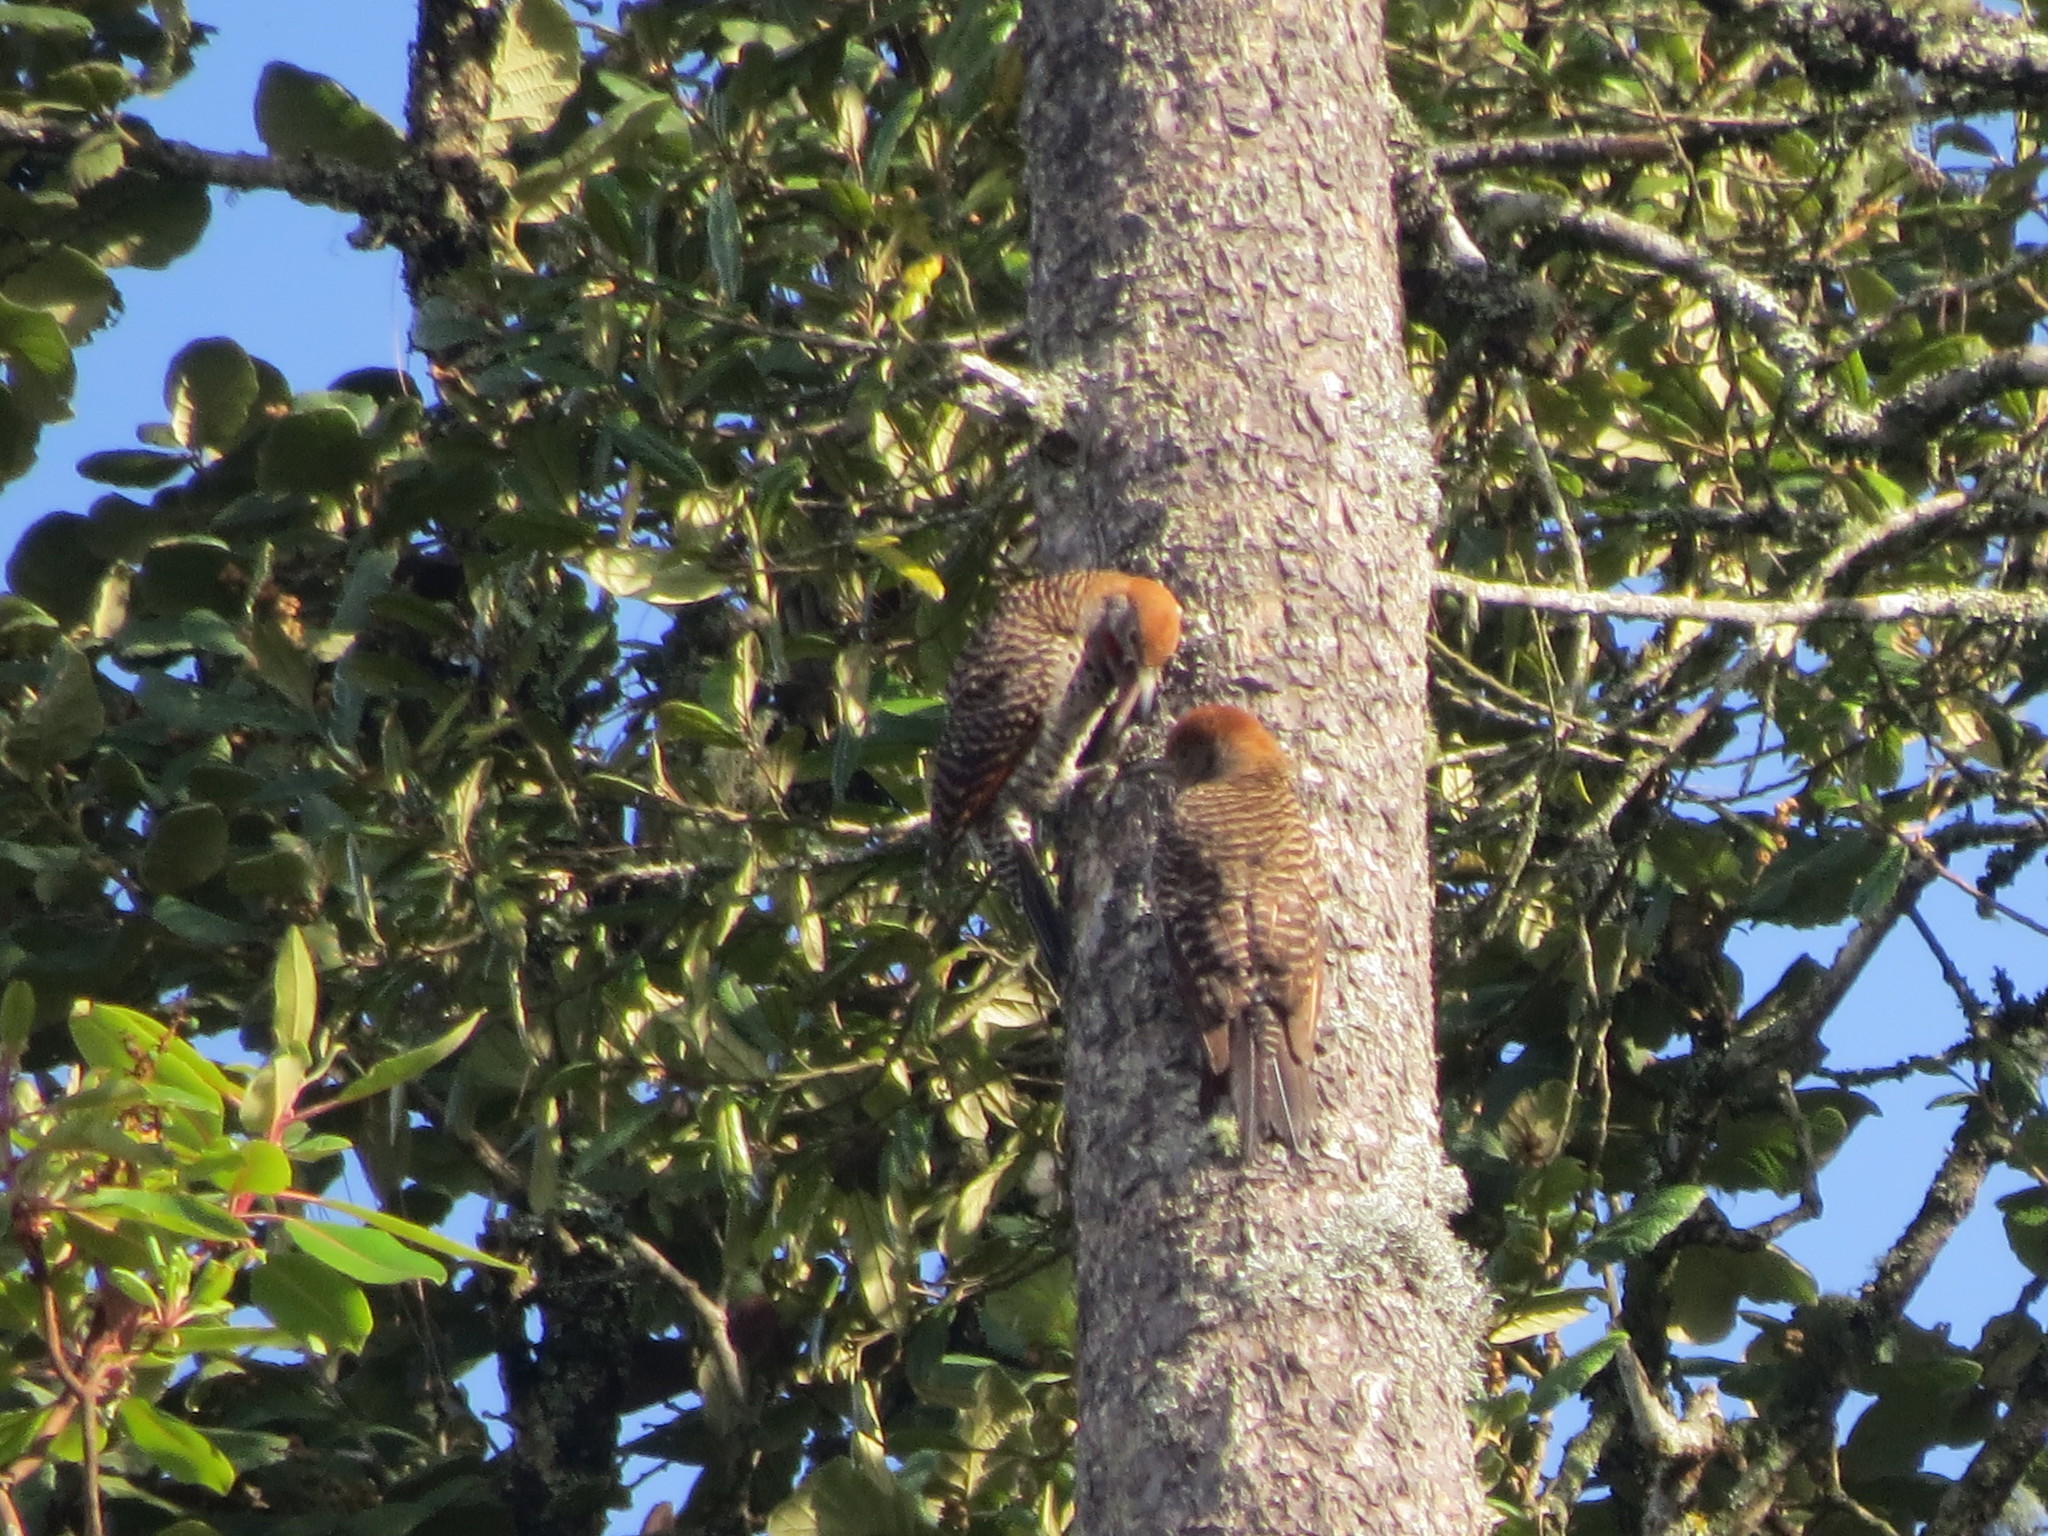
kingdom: Animalia
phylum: Chordata
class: Aves
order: Piciformes
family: Picidae
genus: Colaptes
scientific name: Colaptes auratus
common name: Northern flicker
